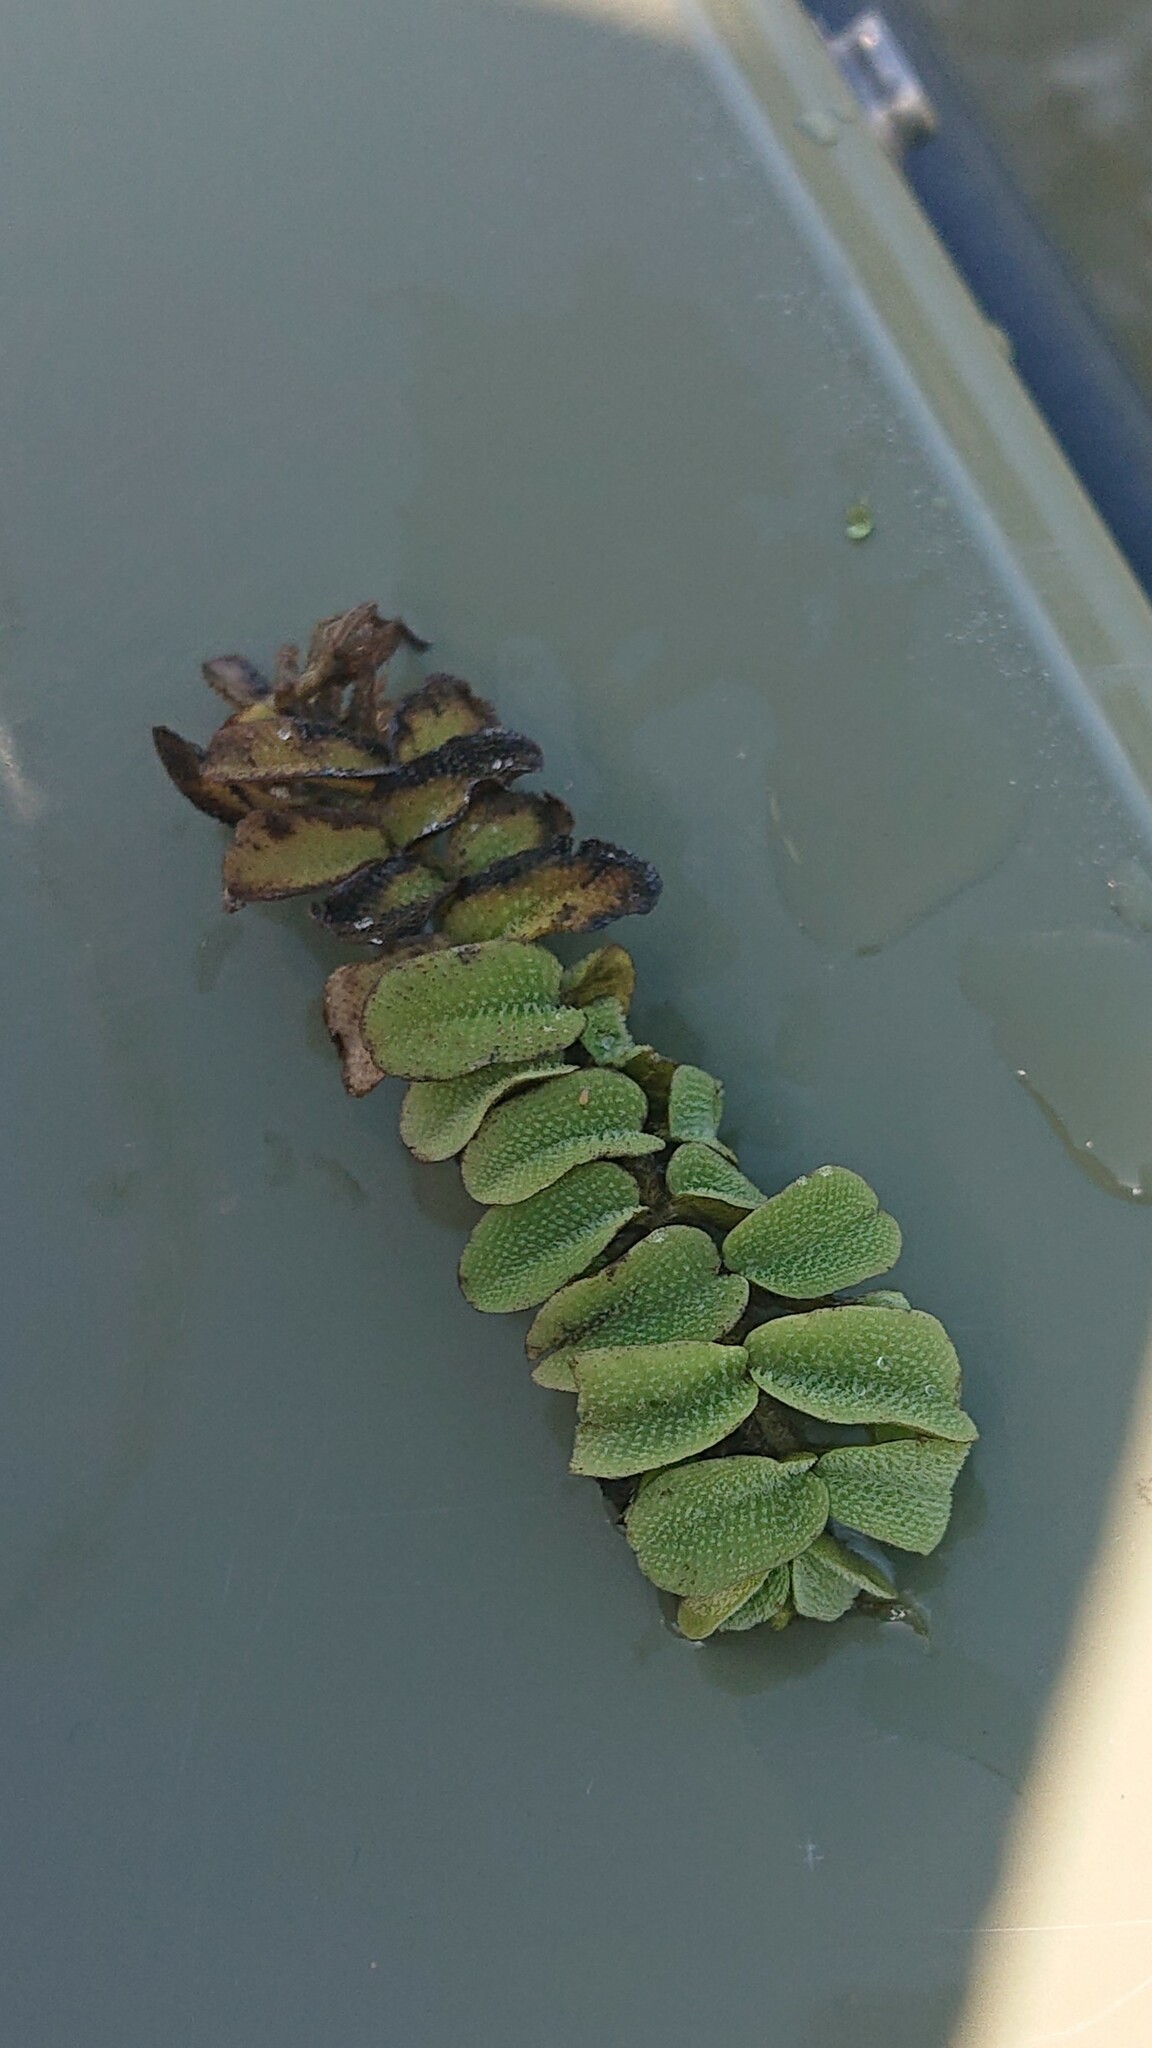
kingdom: Plantae
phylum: Tracheophyta
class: Polypodiopsida
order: Salviniales
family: Salviniaceae
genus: Salvinia
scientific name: Salvinia natans
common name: Floating fern
